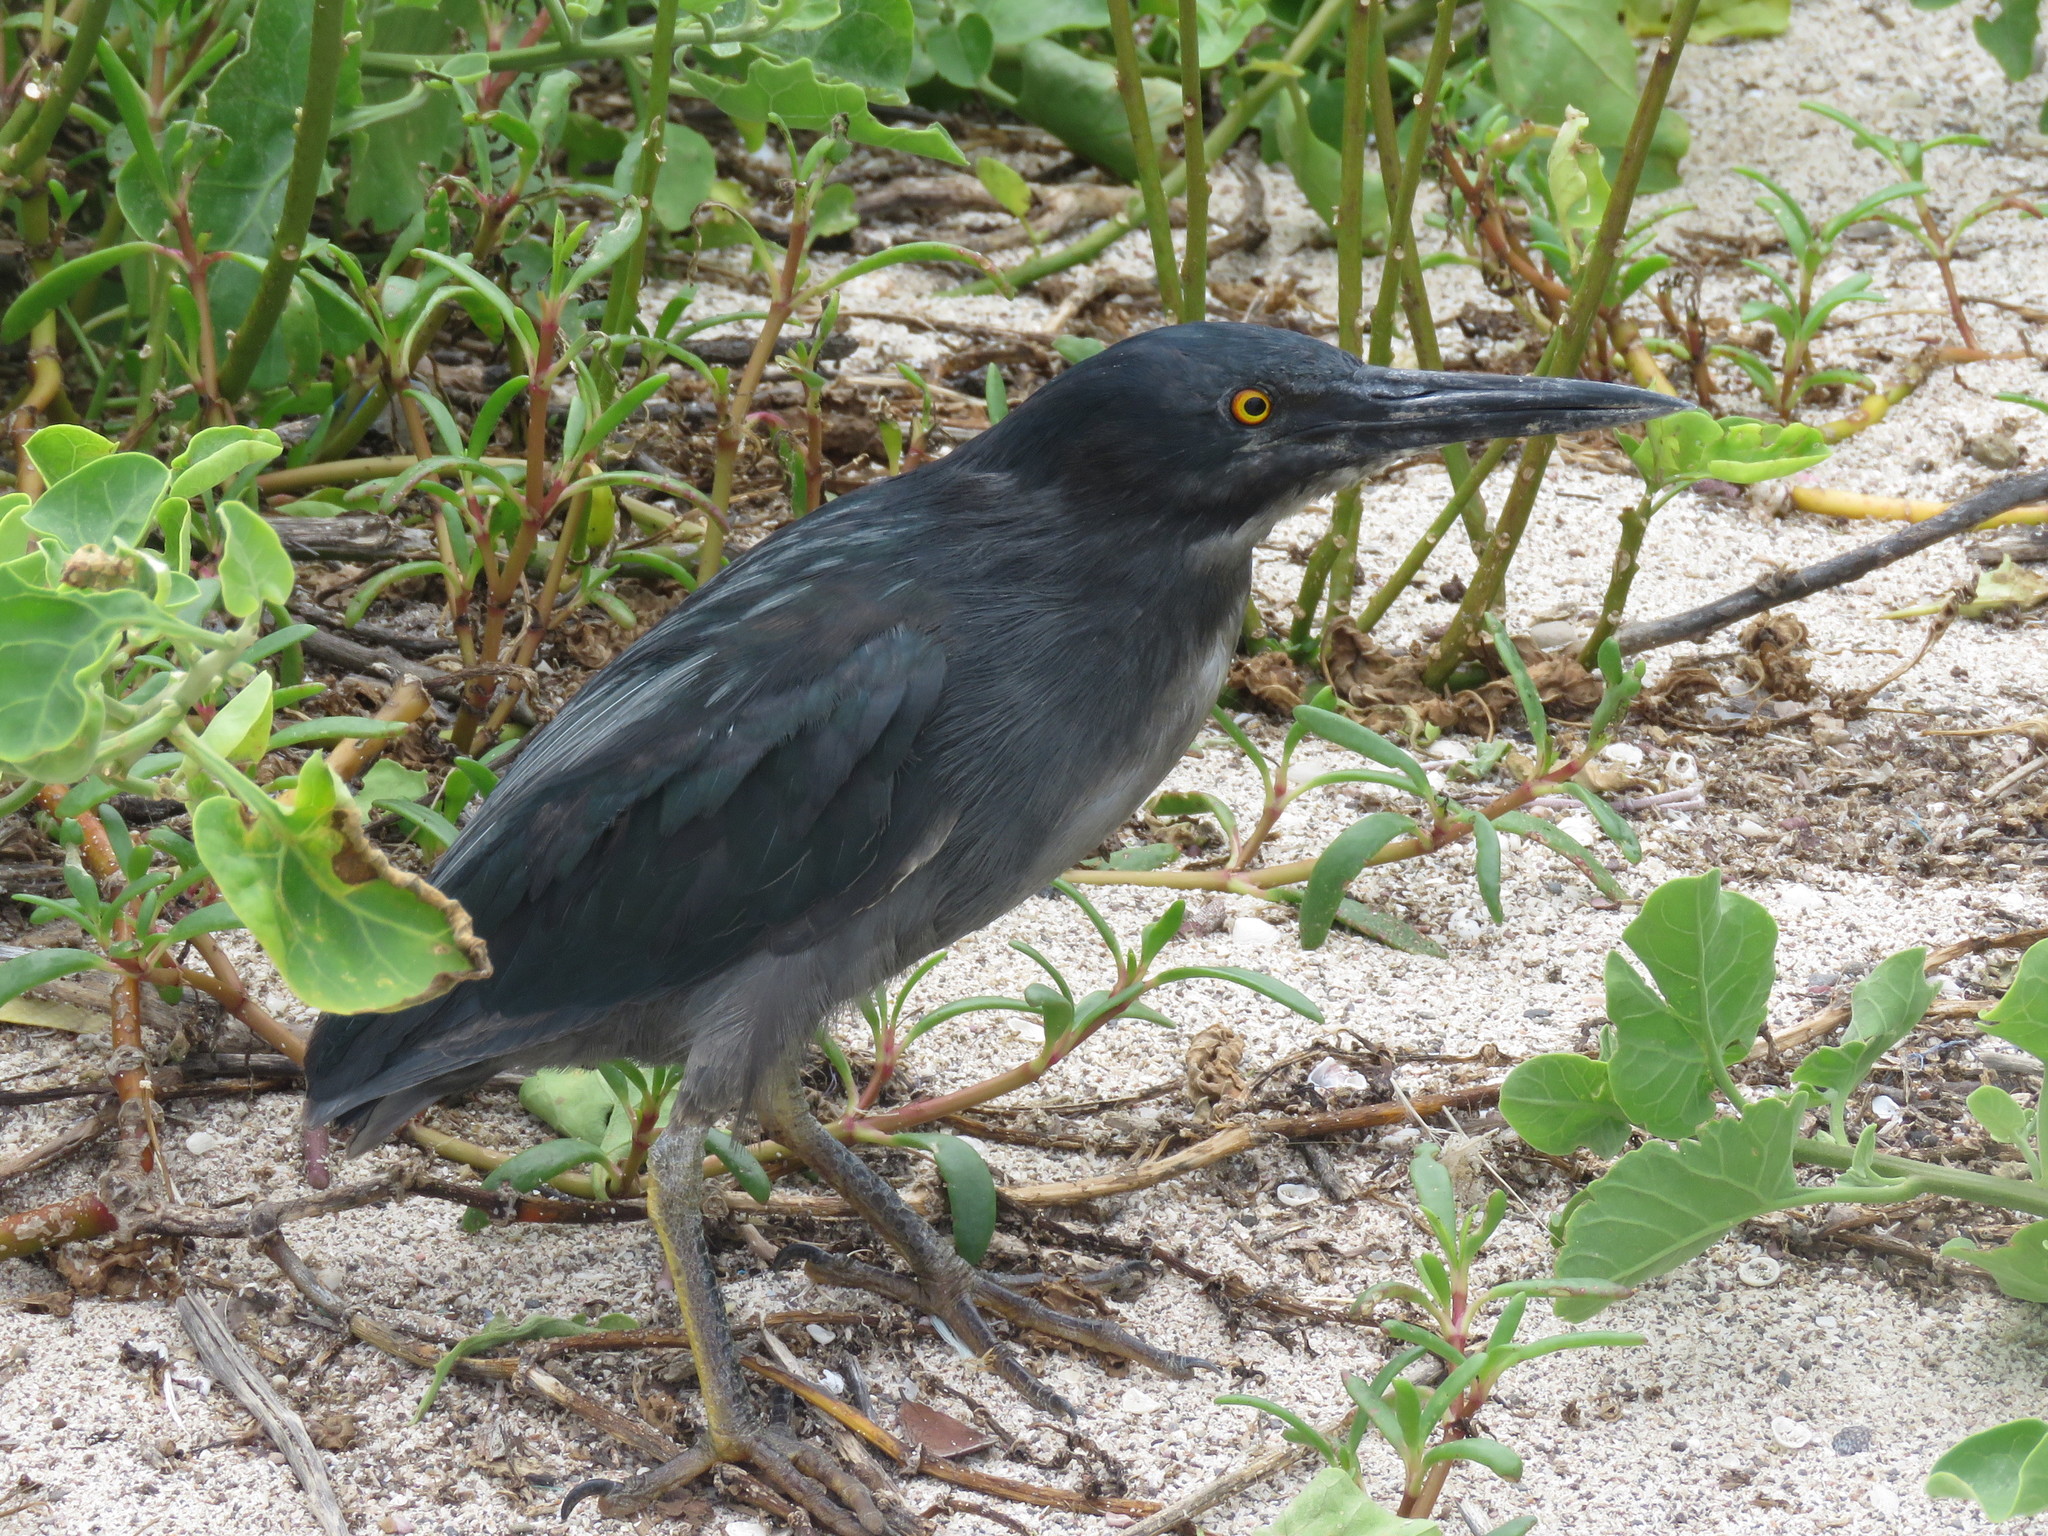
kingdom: Animalia
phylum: Chordata
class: Aves
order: Pelecaniformes
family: Ardeidae
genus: Butorides
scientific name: Butorides striata
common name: Striated heron
